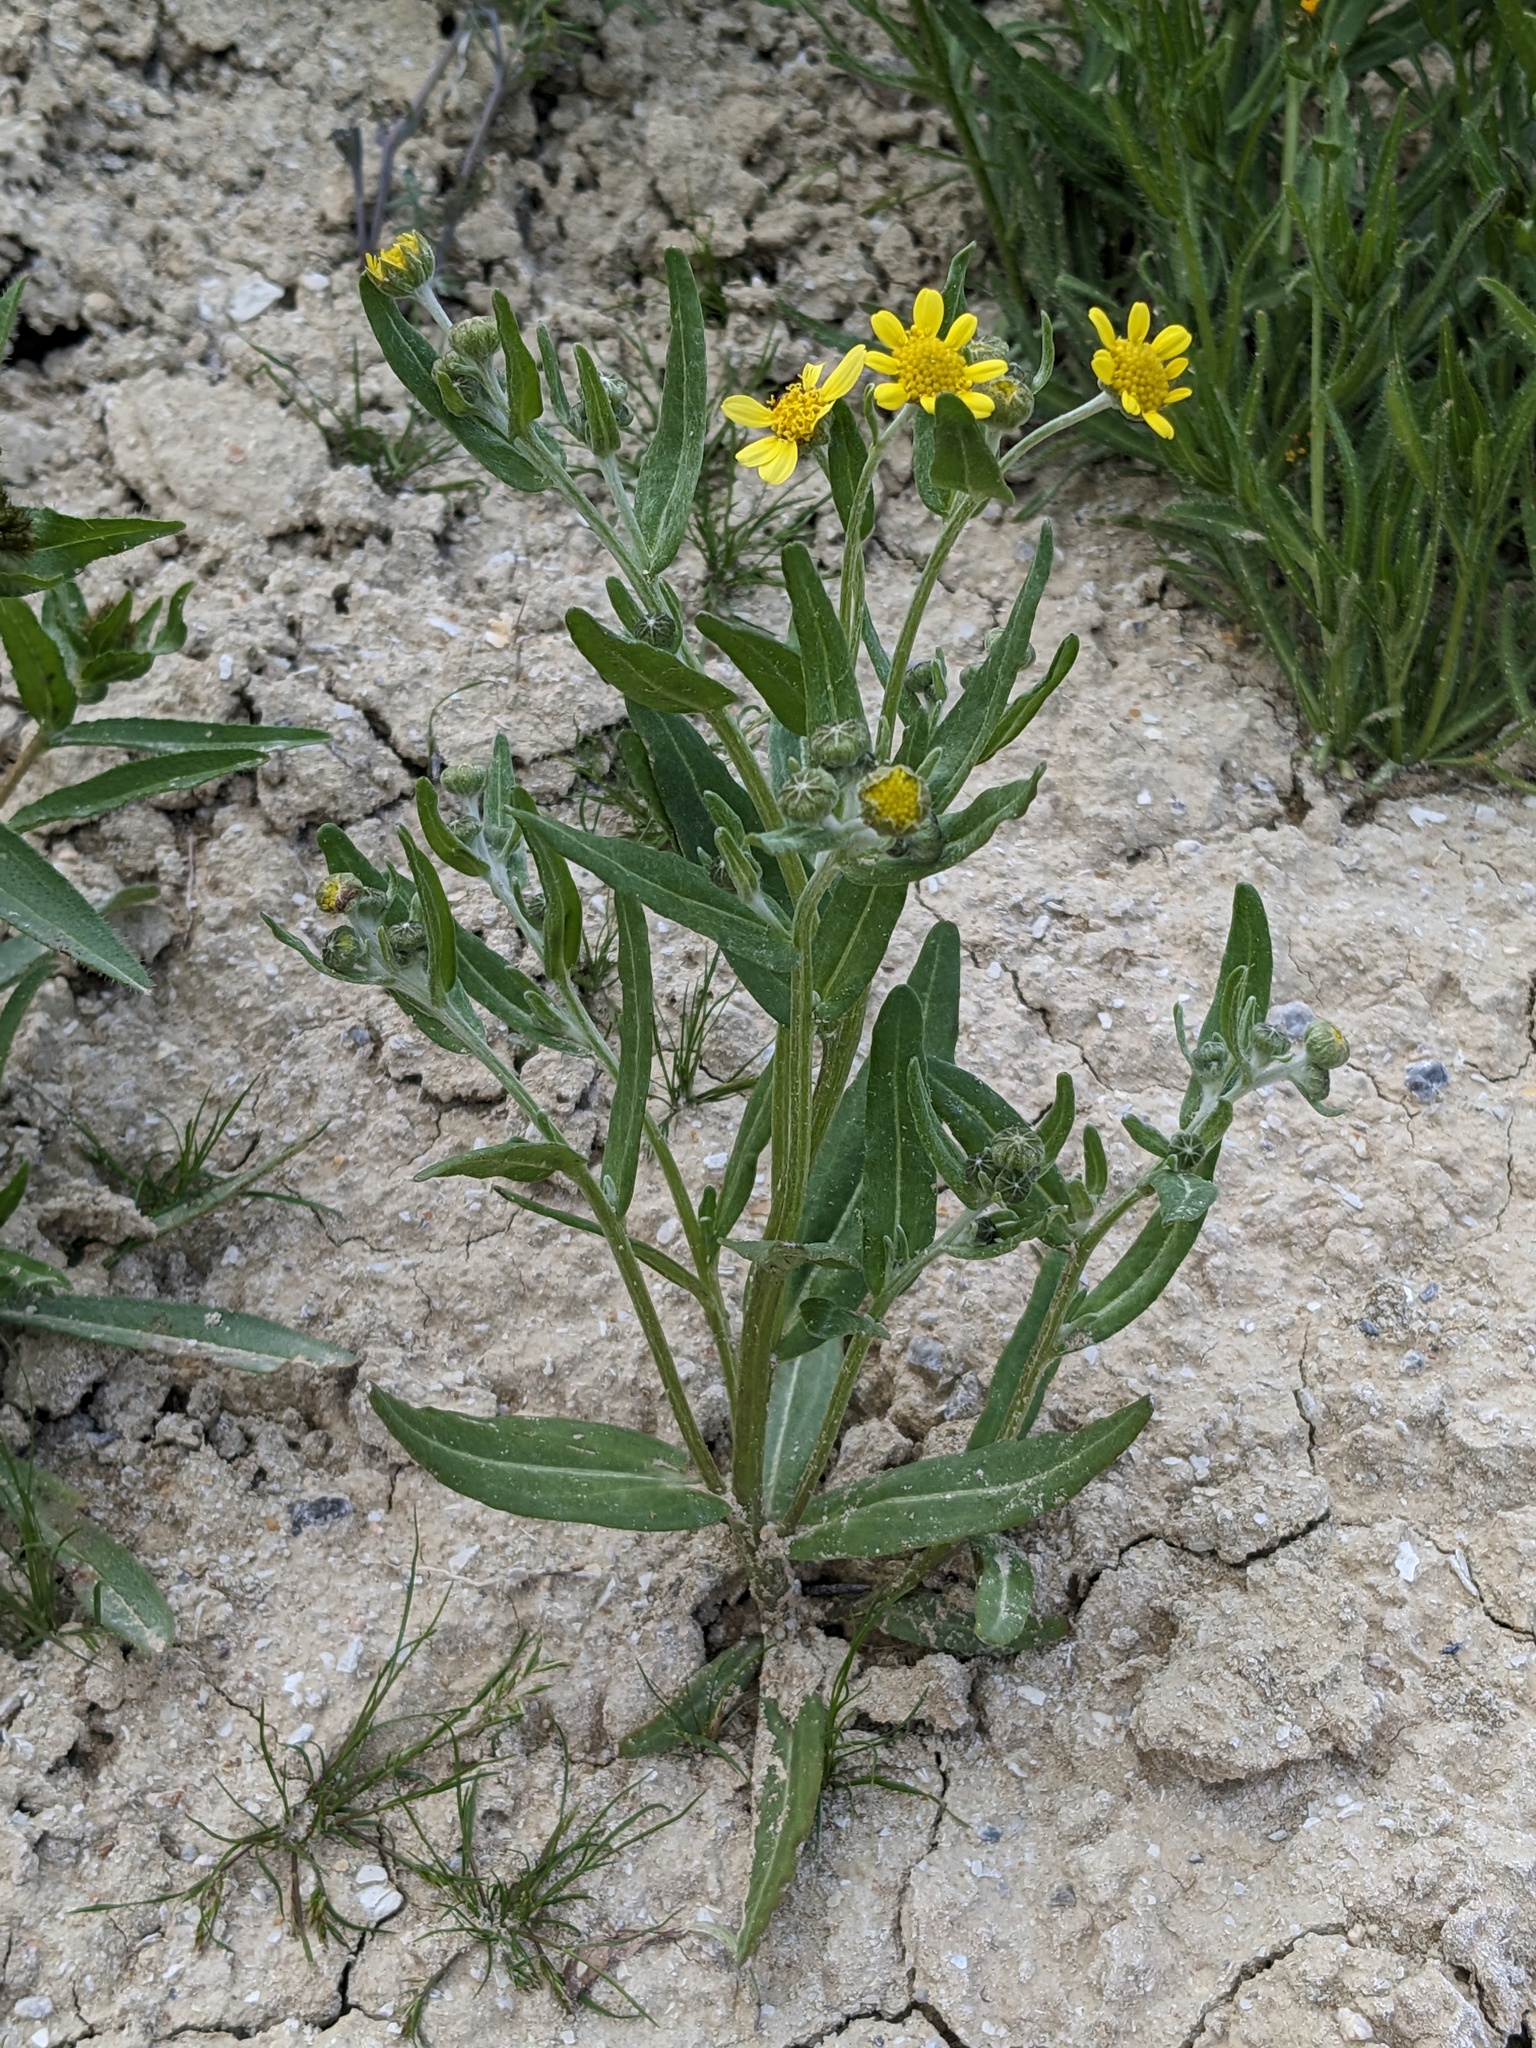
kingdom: Plantae
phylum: Tracheophyta
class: Magnoliopsida
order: Asterales
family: Asteraceae
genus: Monolopia
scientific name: Monolopia stricta
